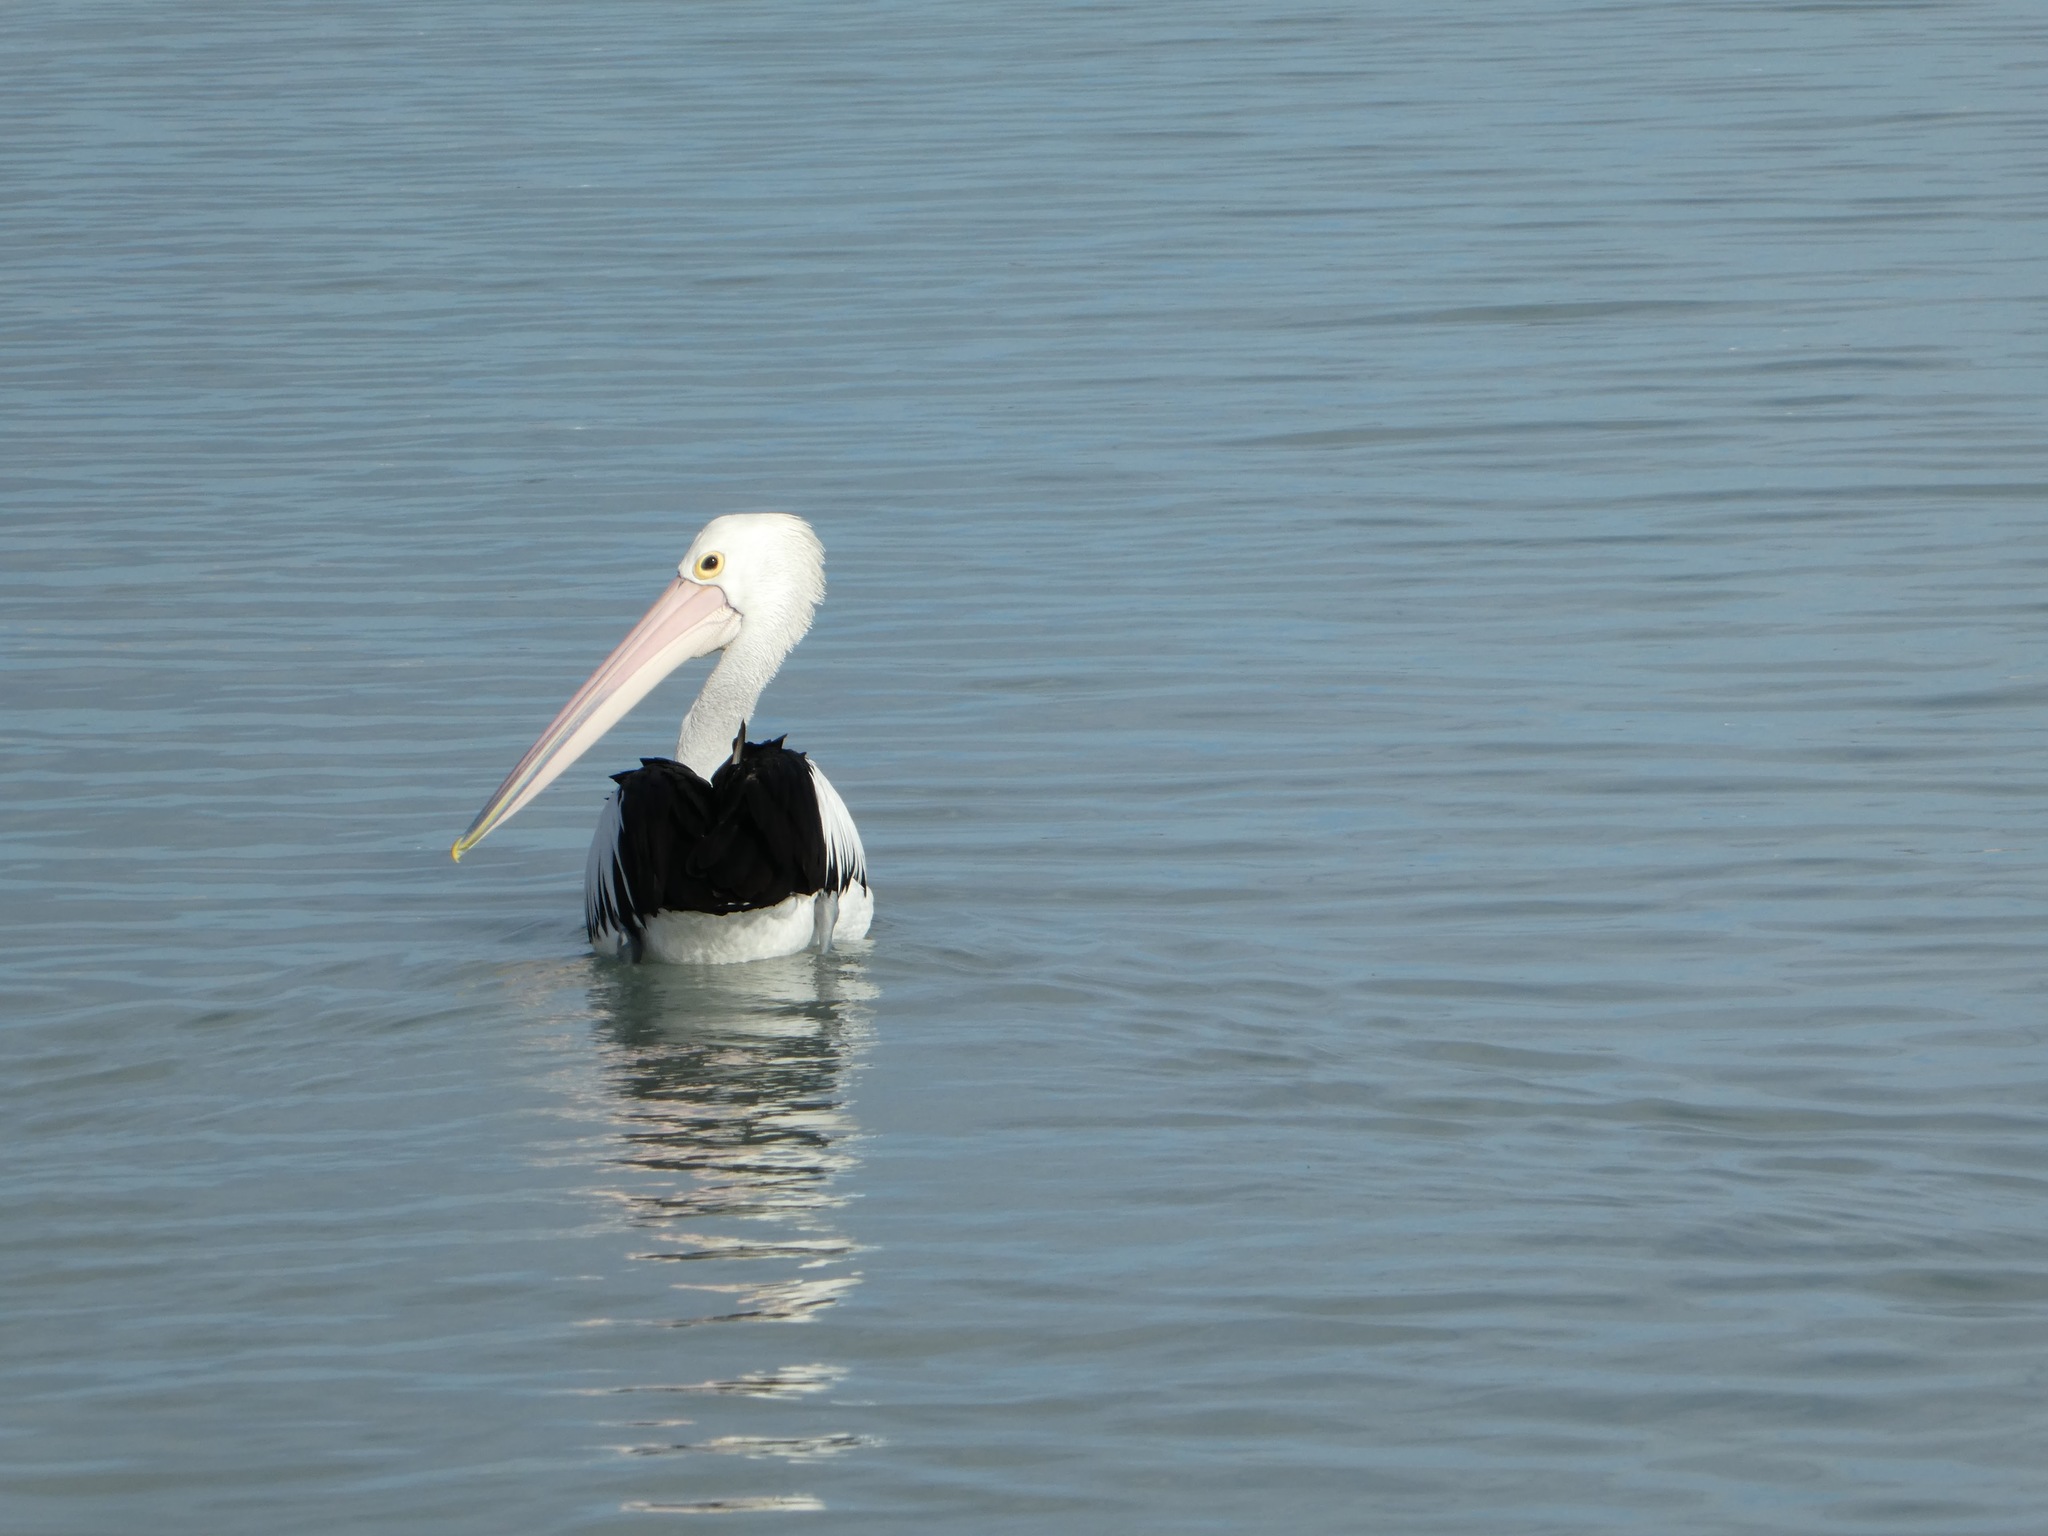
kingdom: Animalia
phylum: Chordata
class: Aves
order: Pelecaniformes
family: Pelecanidae
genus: Pelecanus
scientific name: Pelecanus conspicillatus
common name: Australian pelican
